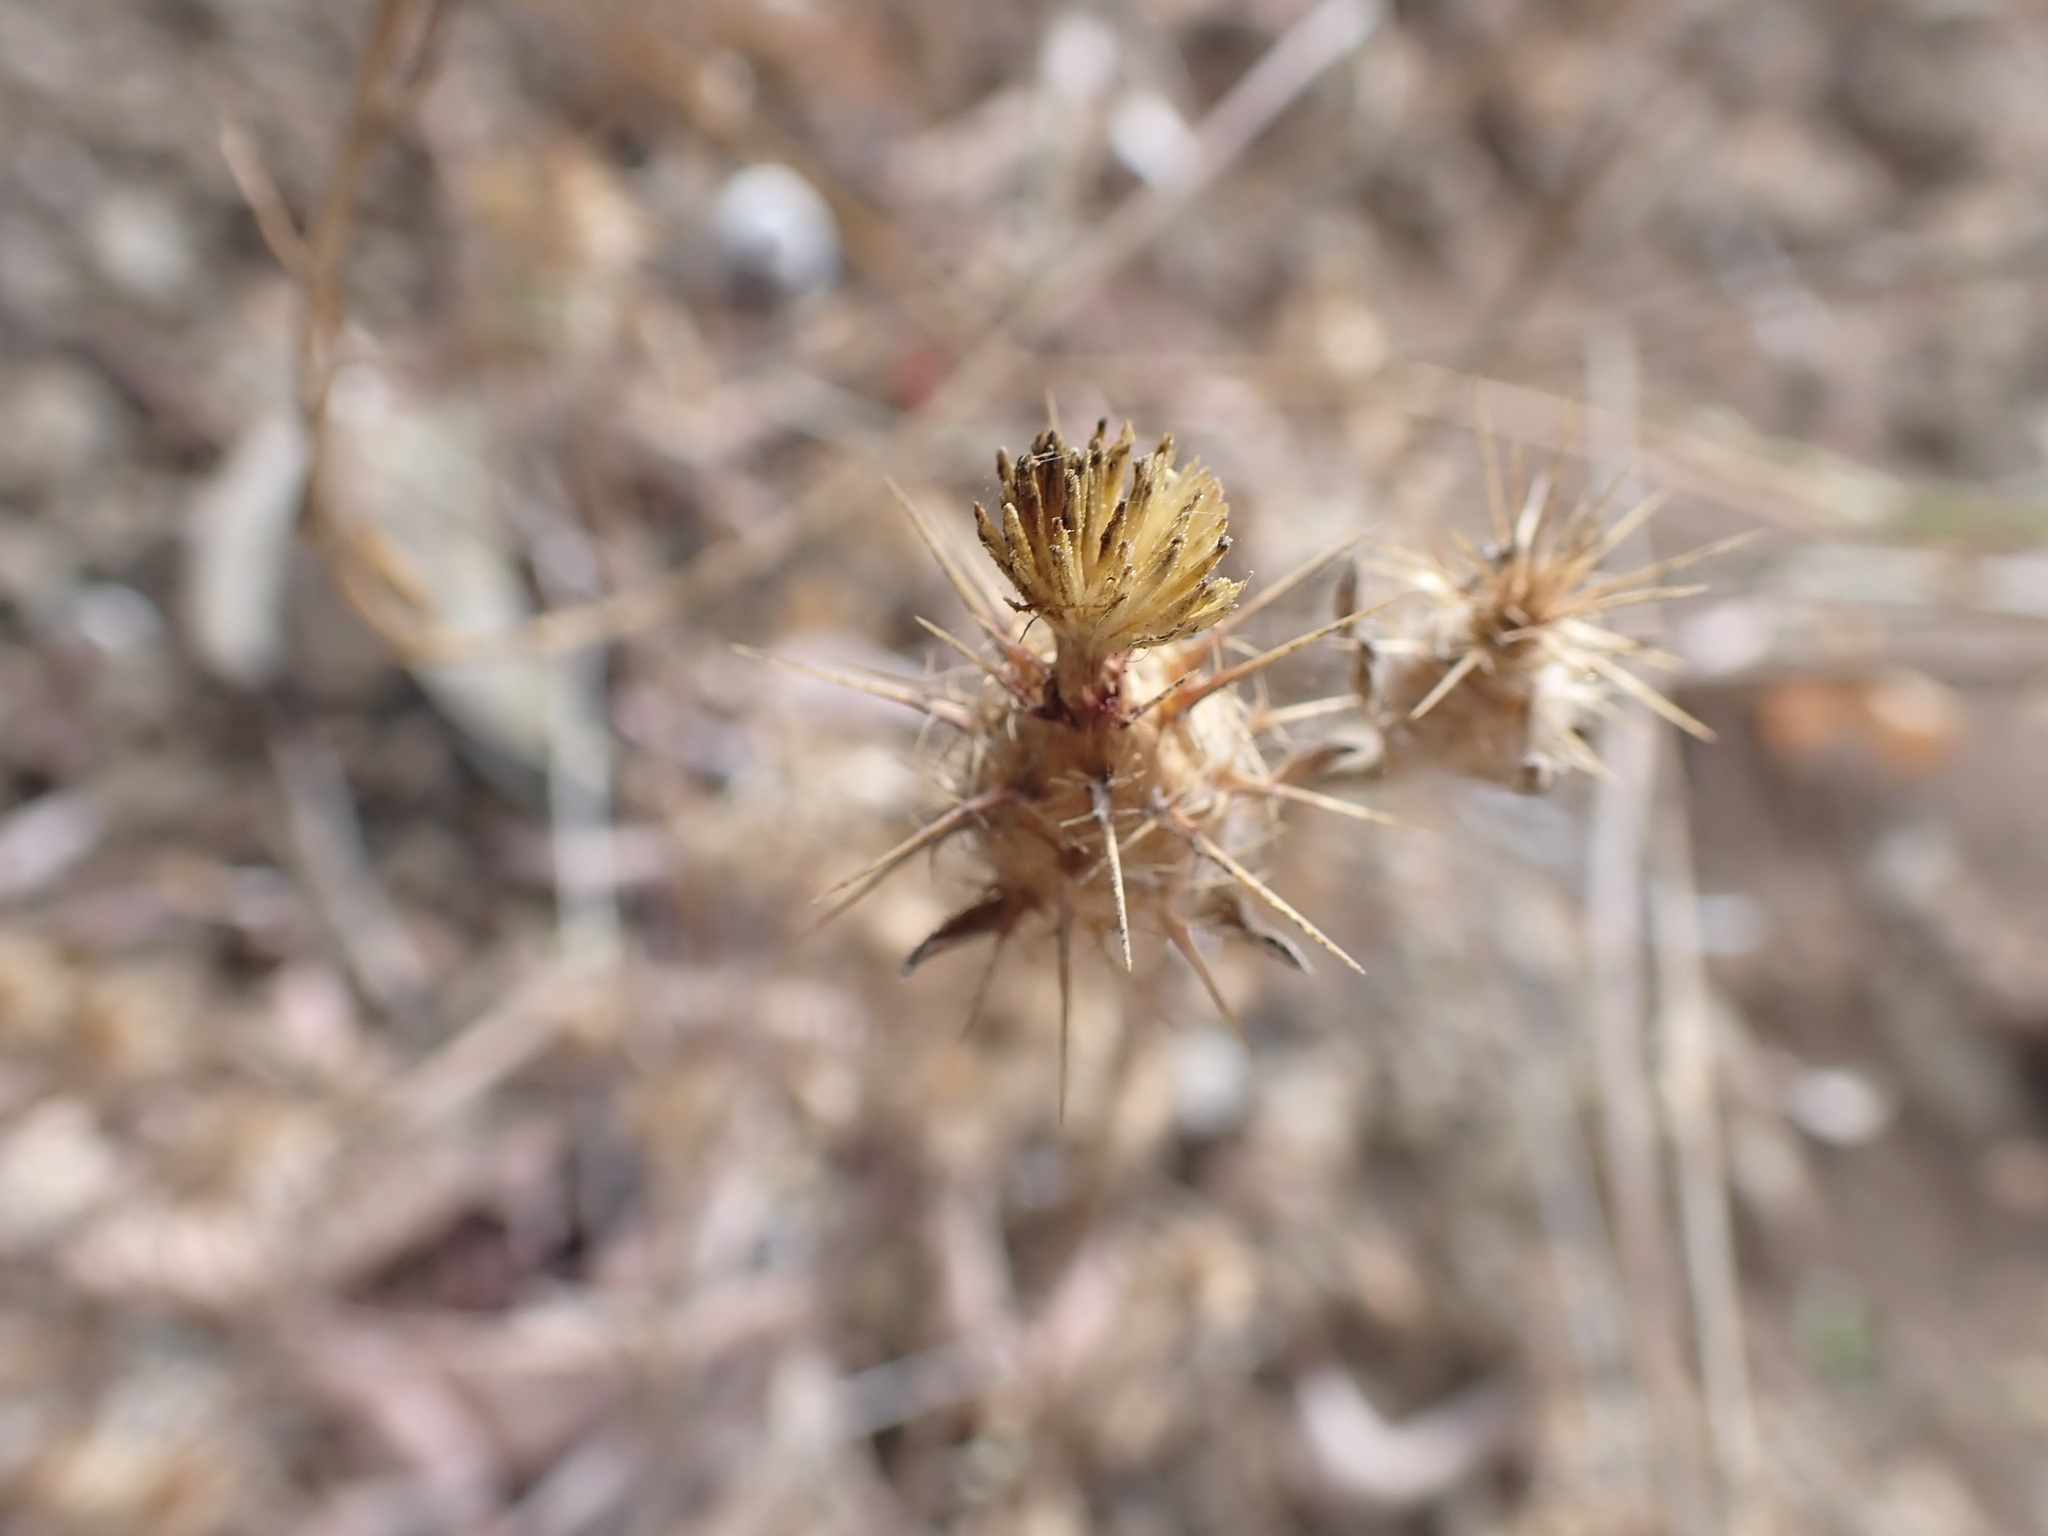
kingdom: Plantae
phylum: Tracheophyta
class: Magnoliopsida
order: Asterales
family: Asteraceae
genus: Centaurea
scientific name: Centaurea melitensis
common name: Maltese star-thistle
